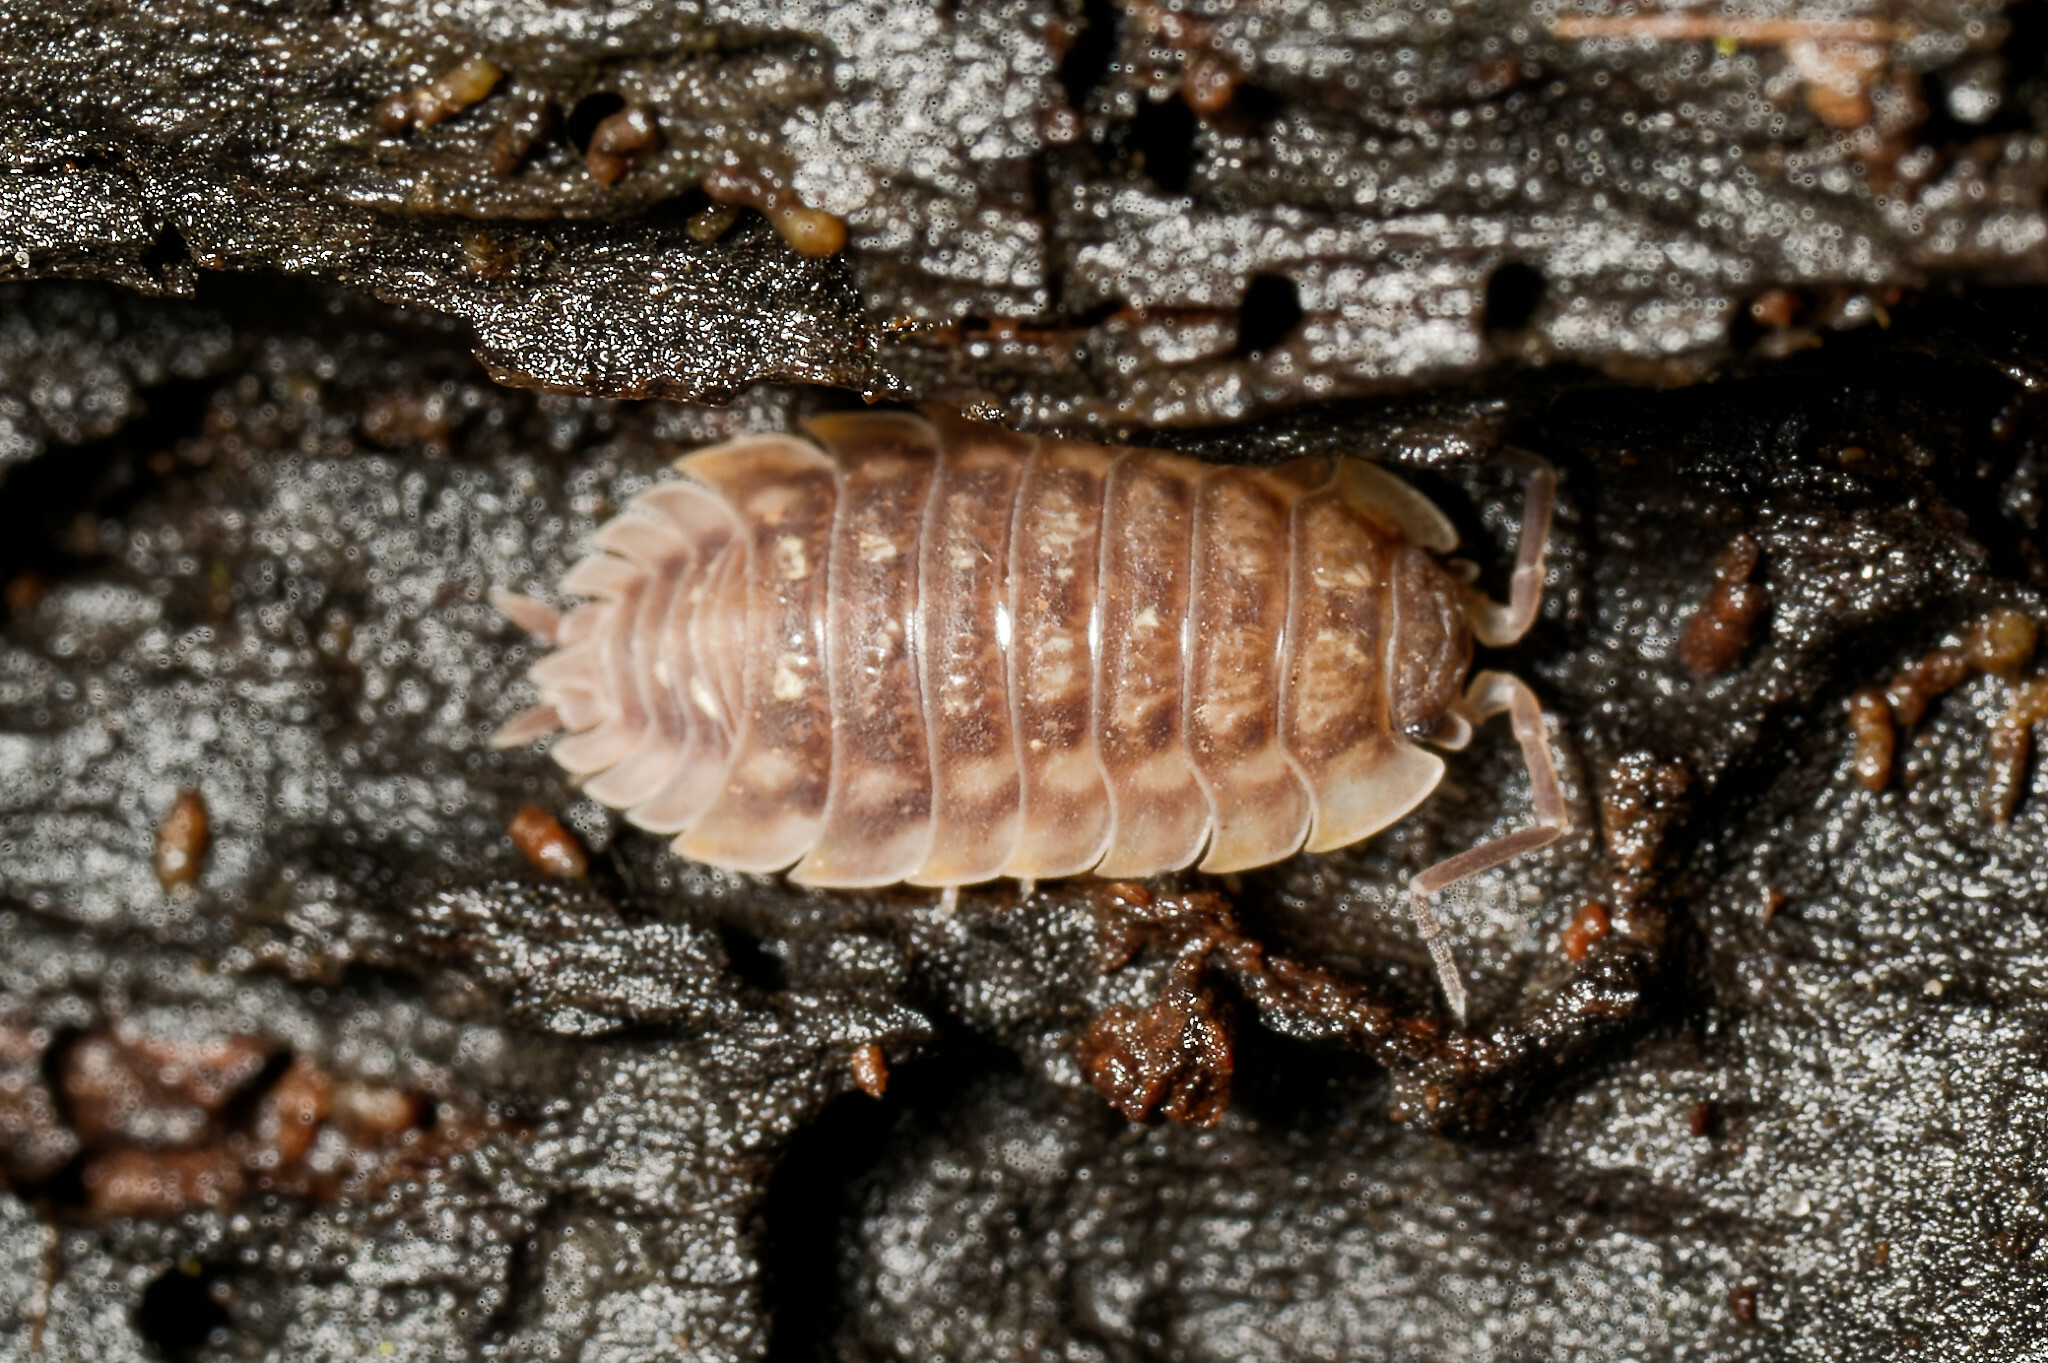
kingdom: Animalia
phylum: Arthropoda
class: Malacostraca
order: Isopoda
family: Oniscidae
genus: Oniscus
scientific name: Oniscus asellus
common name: Common shiny woodlouse
